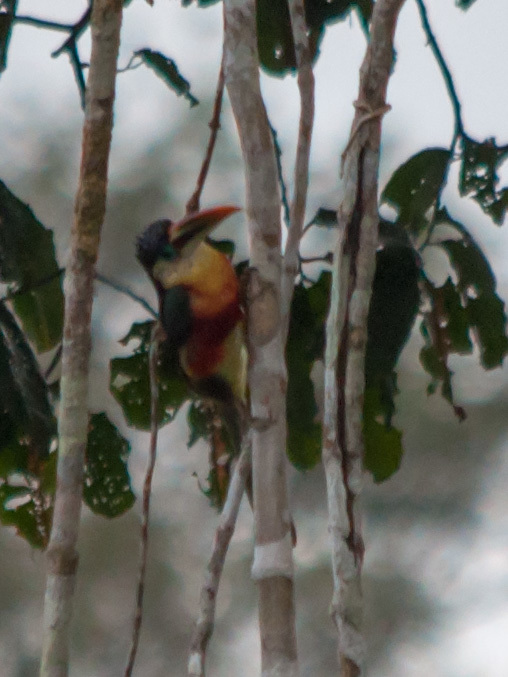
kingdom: Animalia
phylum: Chordata
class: Aves
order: Piciformes
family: Ramphastidae
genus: Pteroglossus
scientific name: Pteroglossus beauharnaisii
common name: Curl-crested aracari
